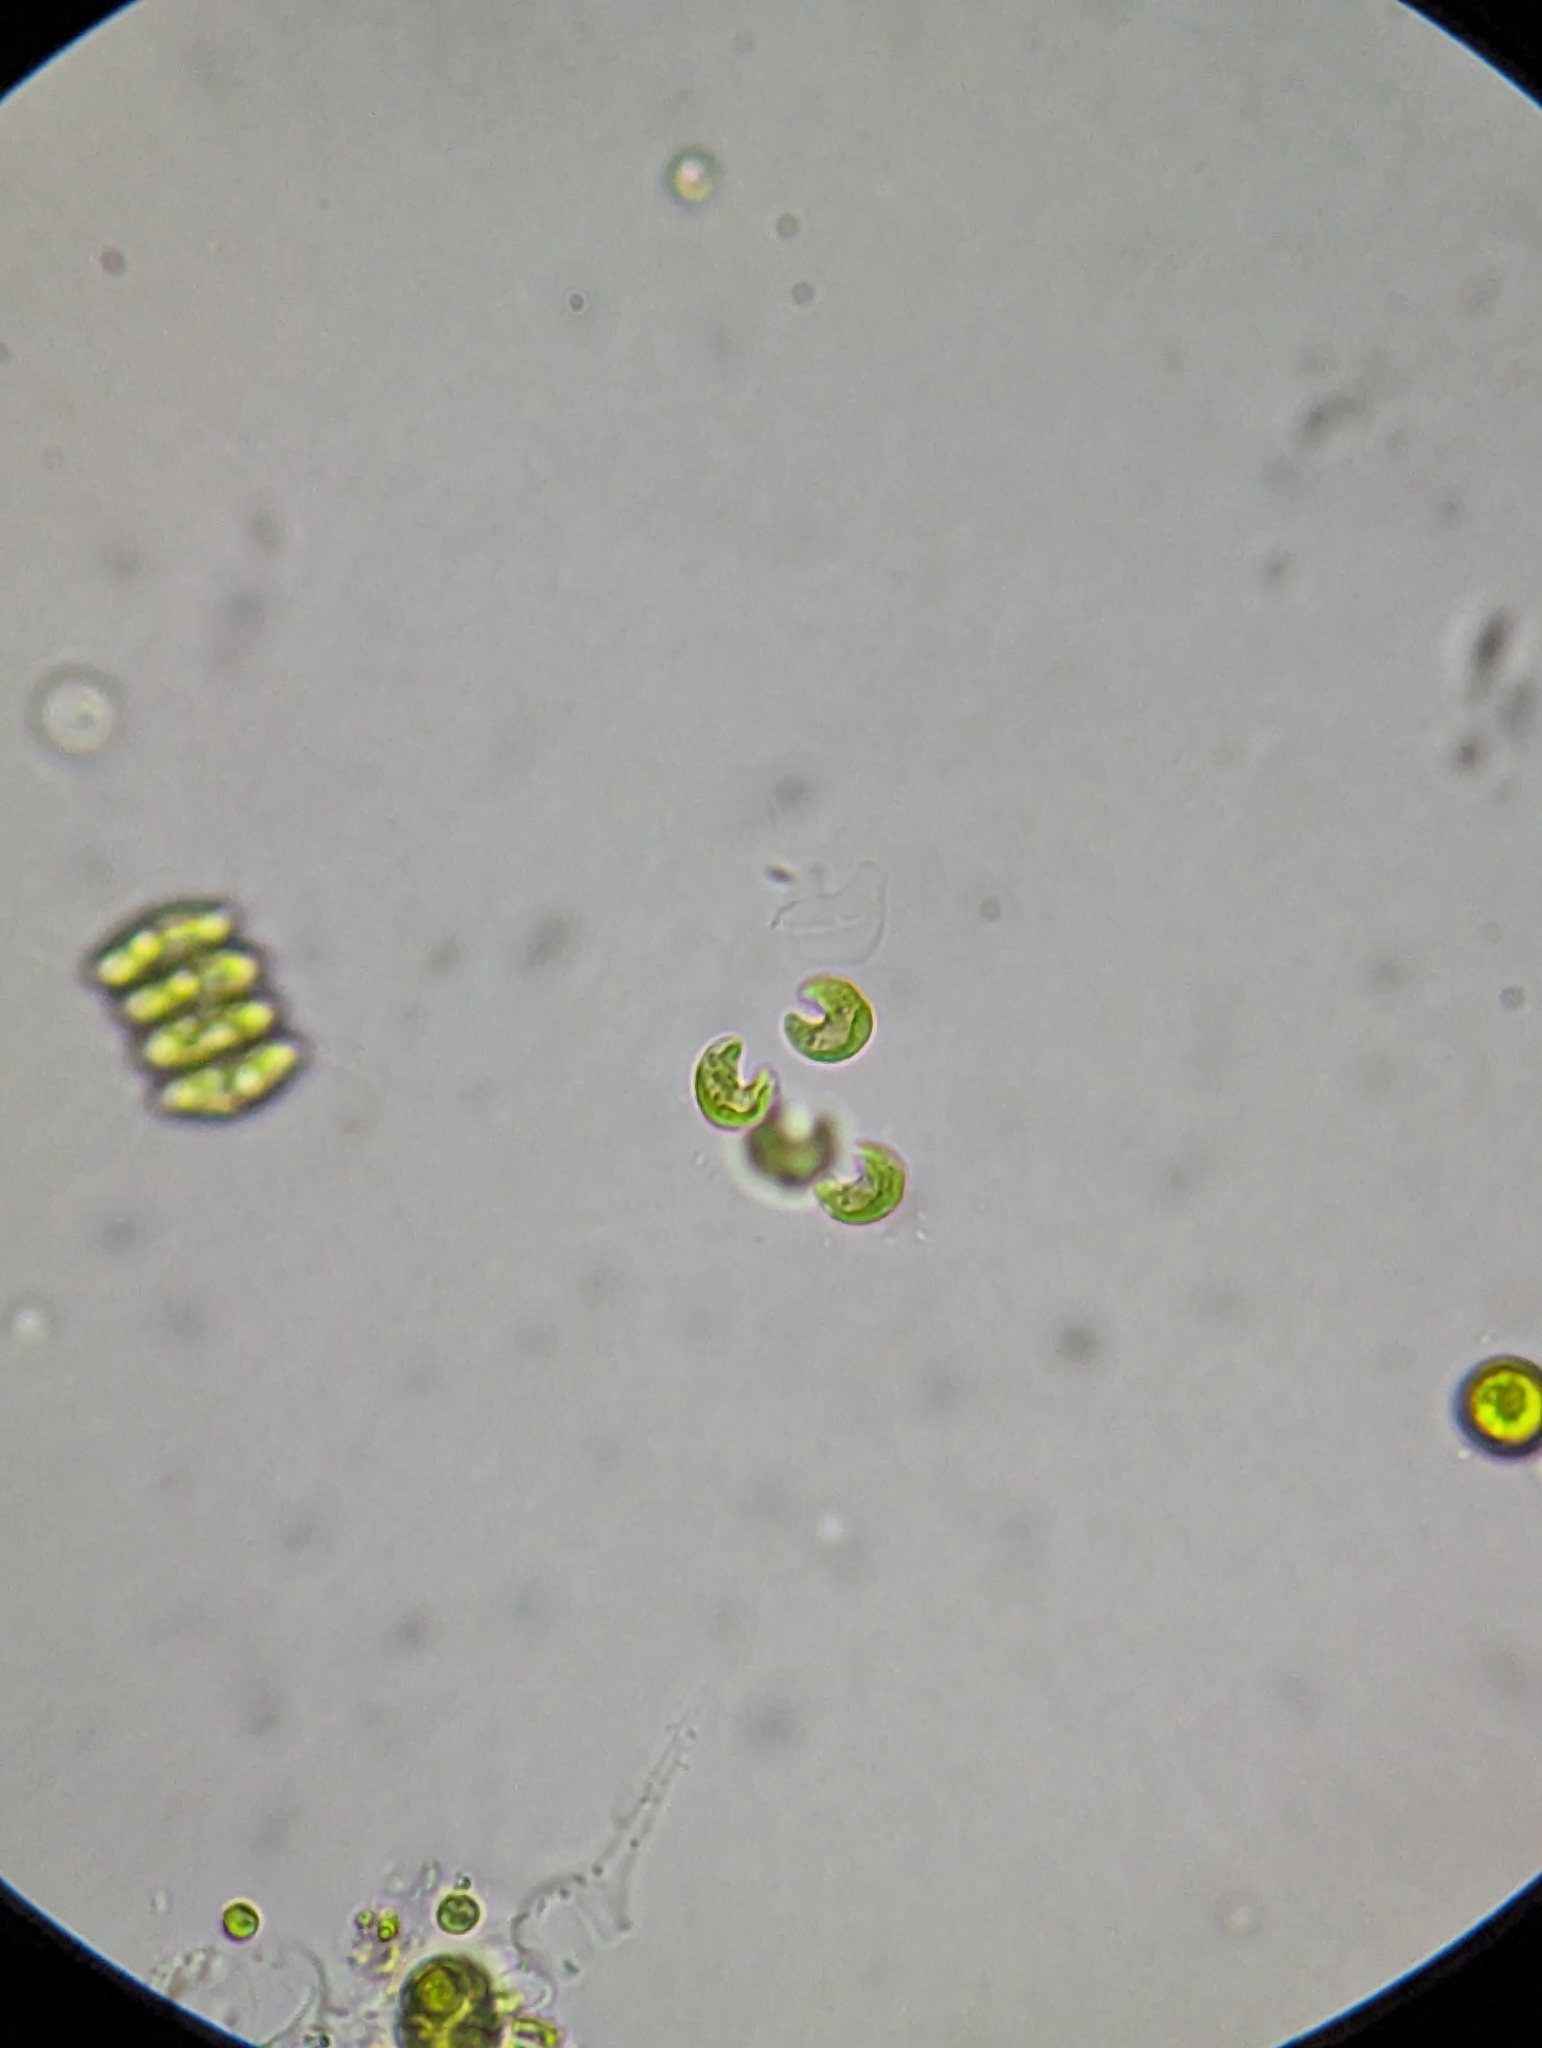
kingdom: Plantae
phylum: Chlorophyta
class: Chlorophyceae
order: Sphaeropleales
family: Selenastraceae
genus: Kirchneriella
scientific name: Kirchneriella lunaris
